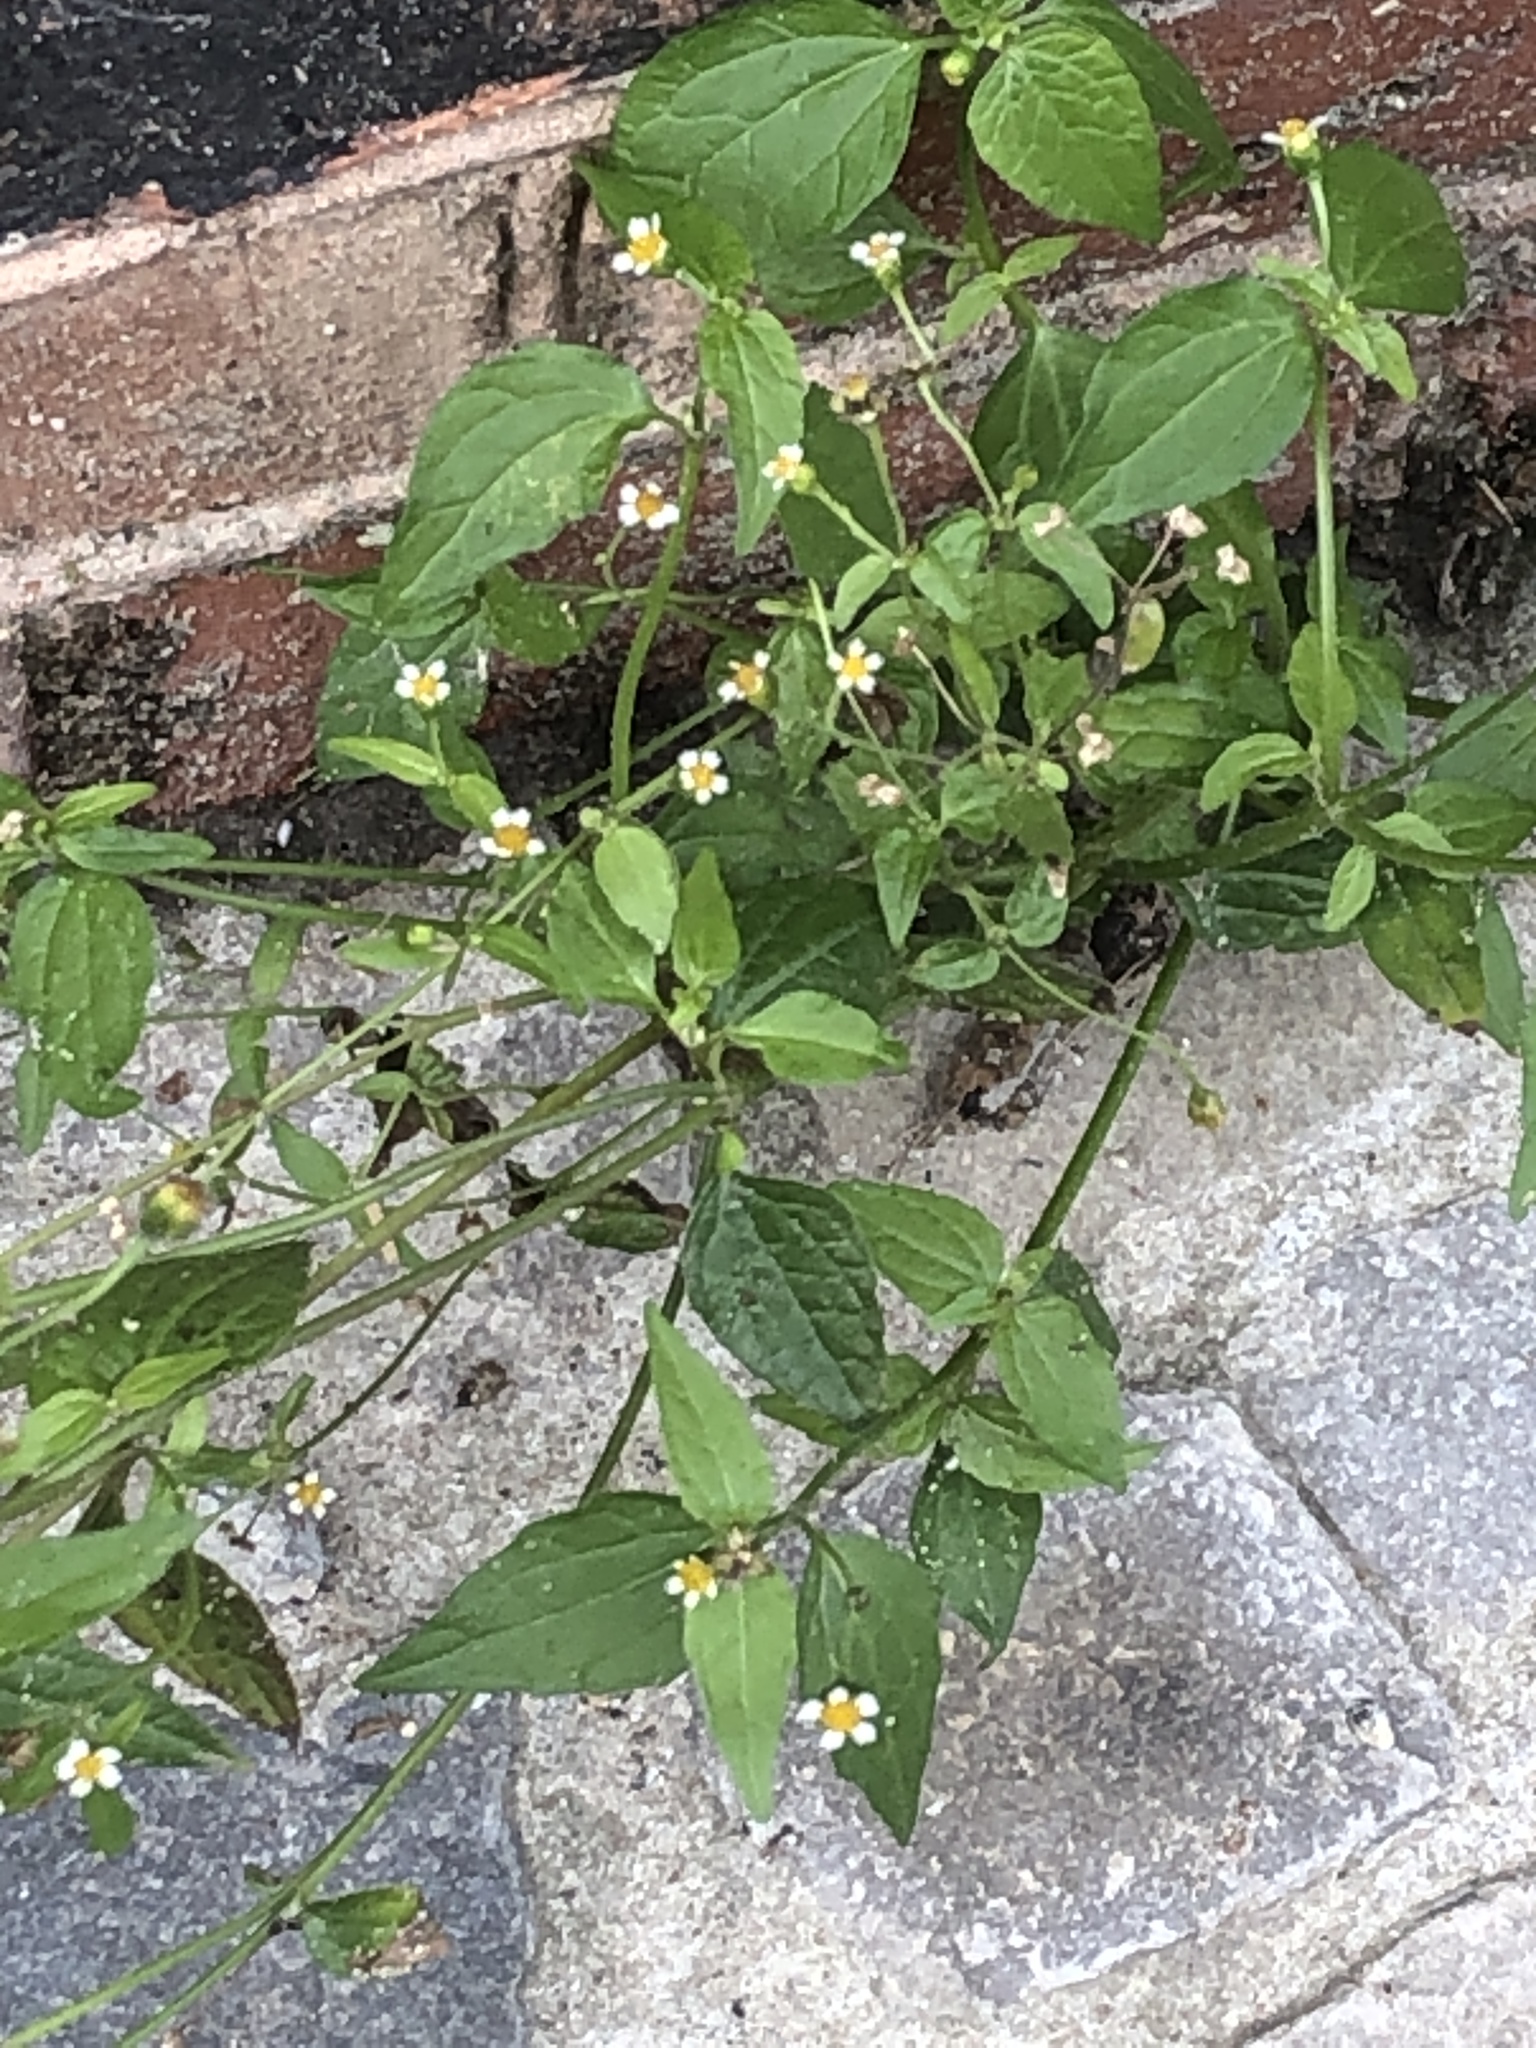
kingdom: Plantae
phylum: Tracheophyta
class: Magnoliopsida
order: Asterales
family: Asteraceae
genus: Galinsoga
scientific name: Galinsoga quadriradiata
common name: Shaggy soldier
